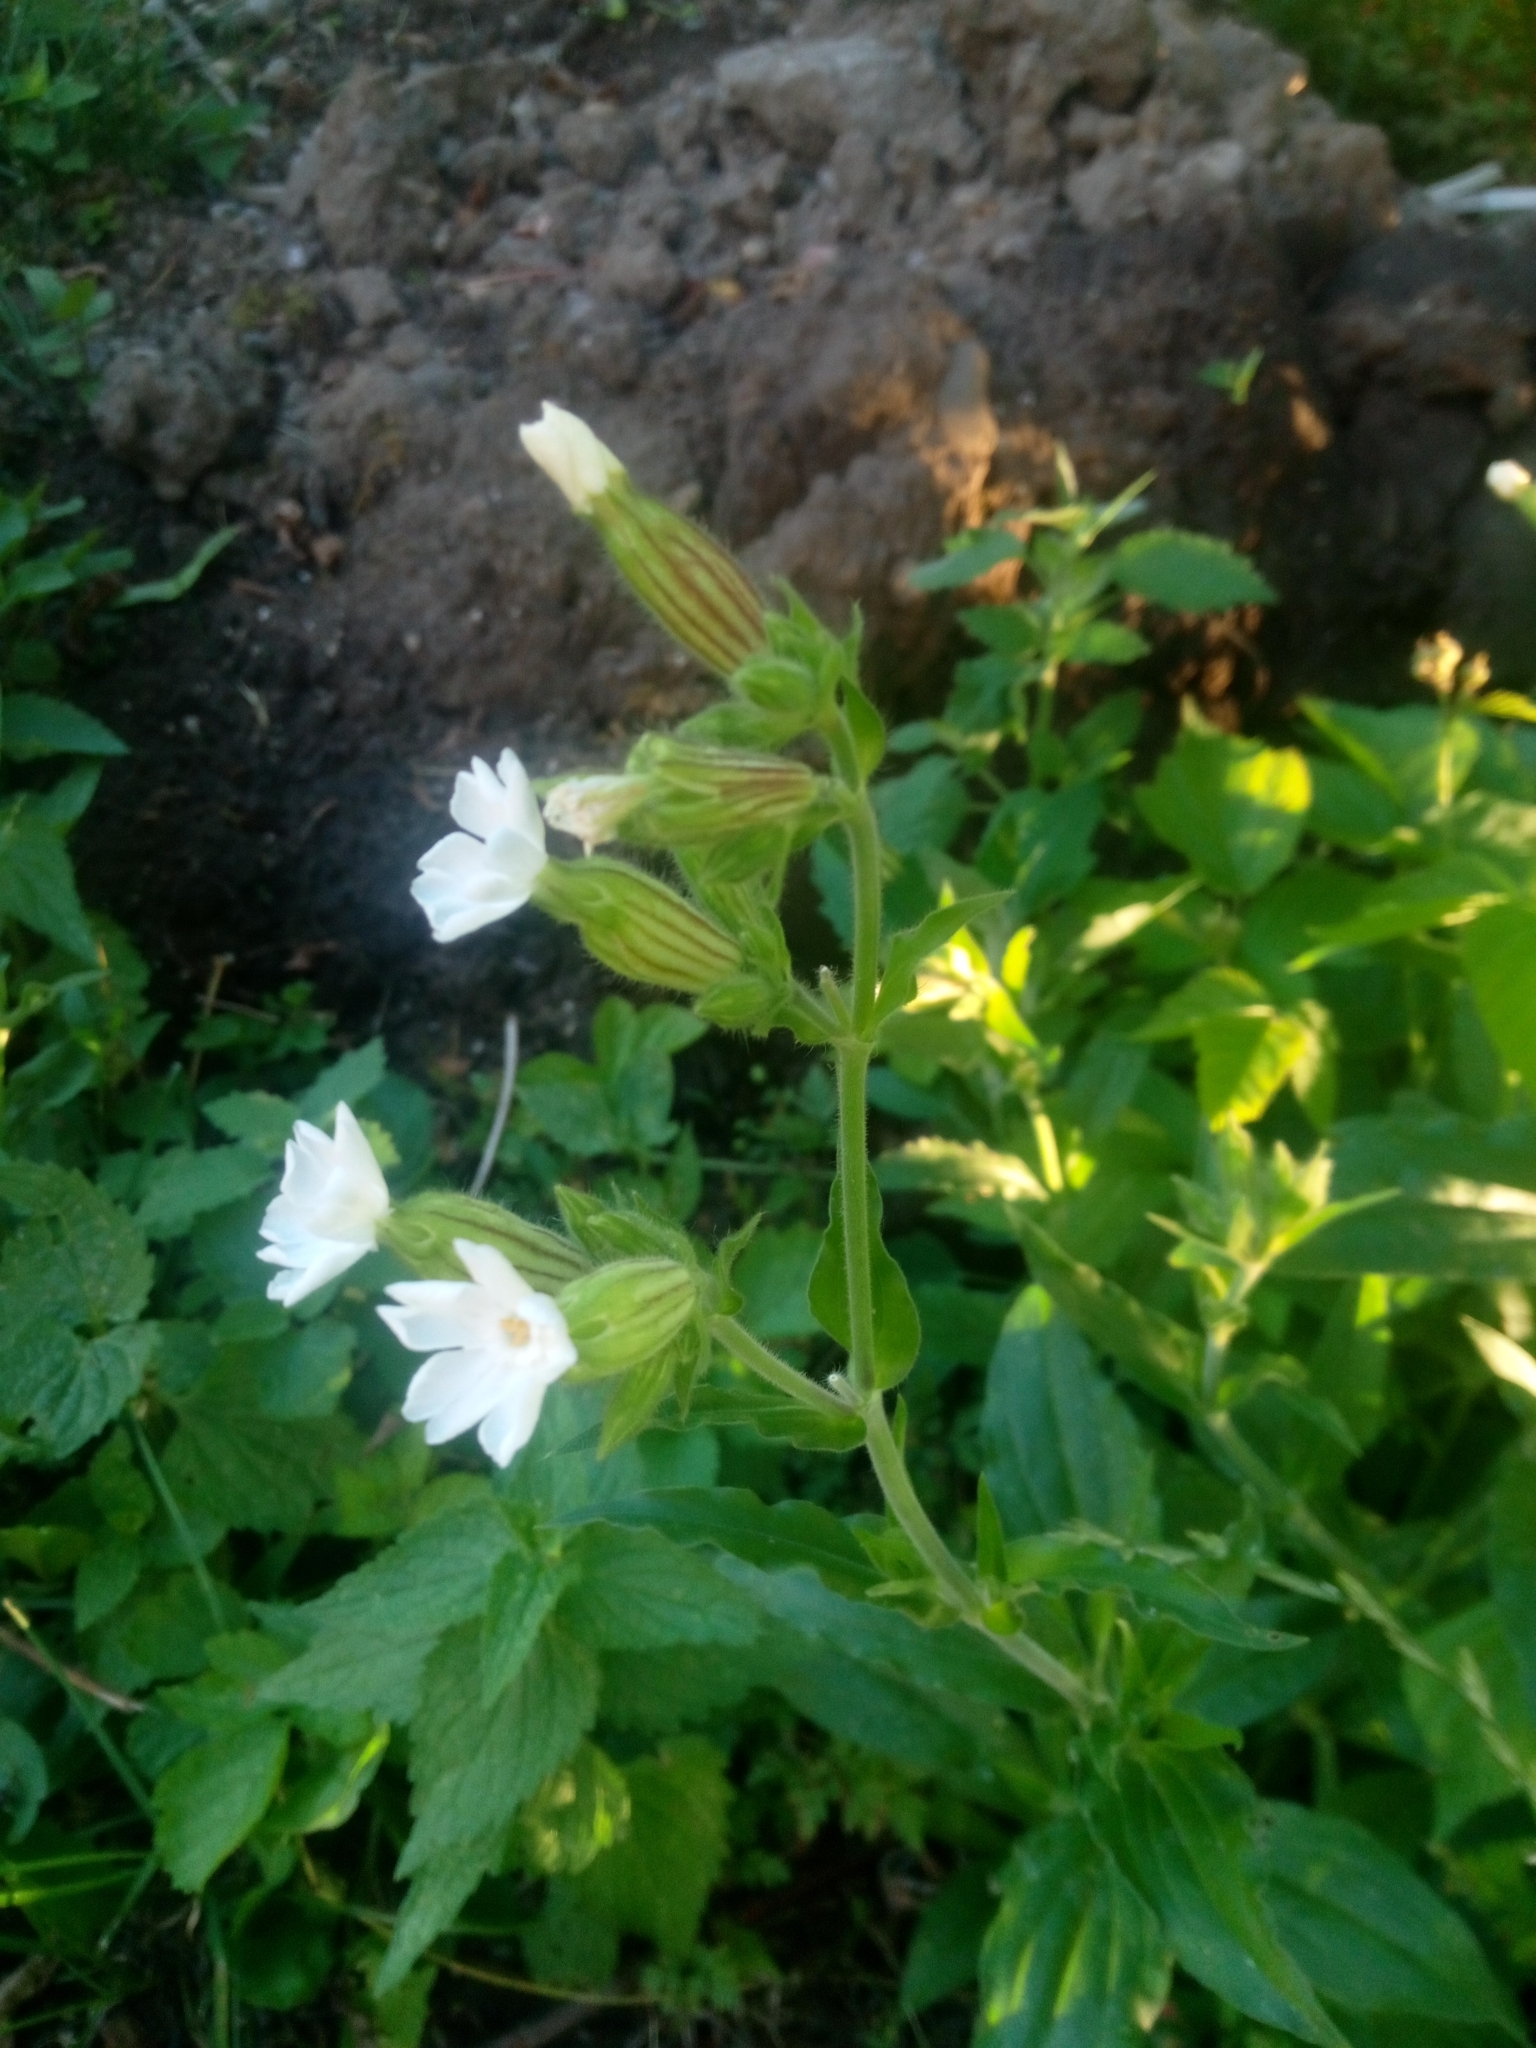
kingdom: Plantae
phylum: Tracheophyta
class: Magnoliopsida
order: Caryophyllales
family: Caryophyllaceae
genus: Silene
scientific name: Silene latifolia
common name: White campion
